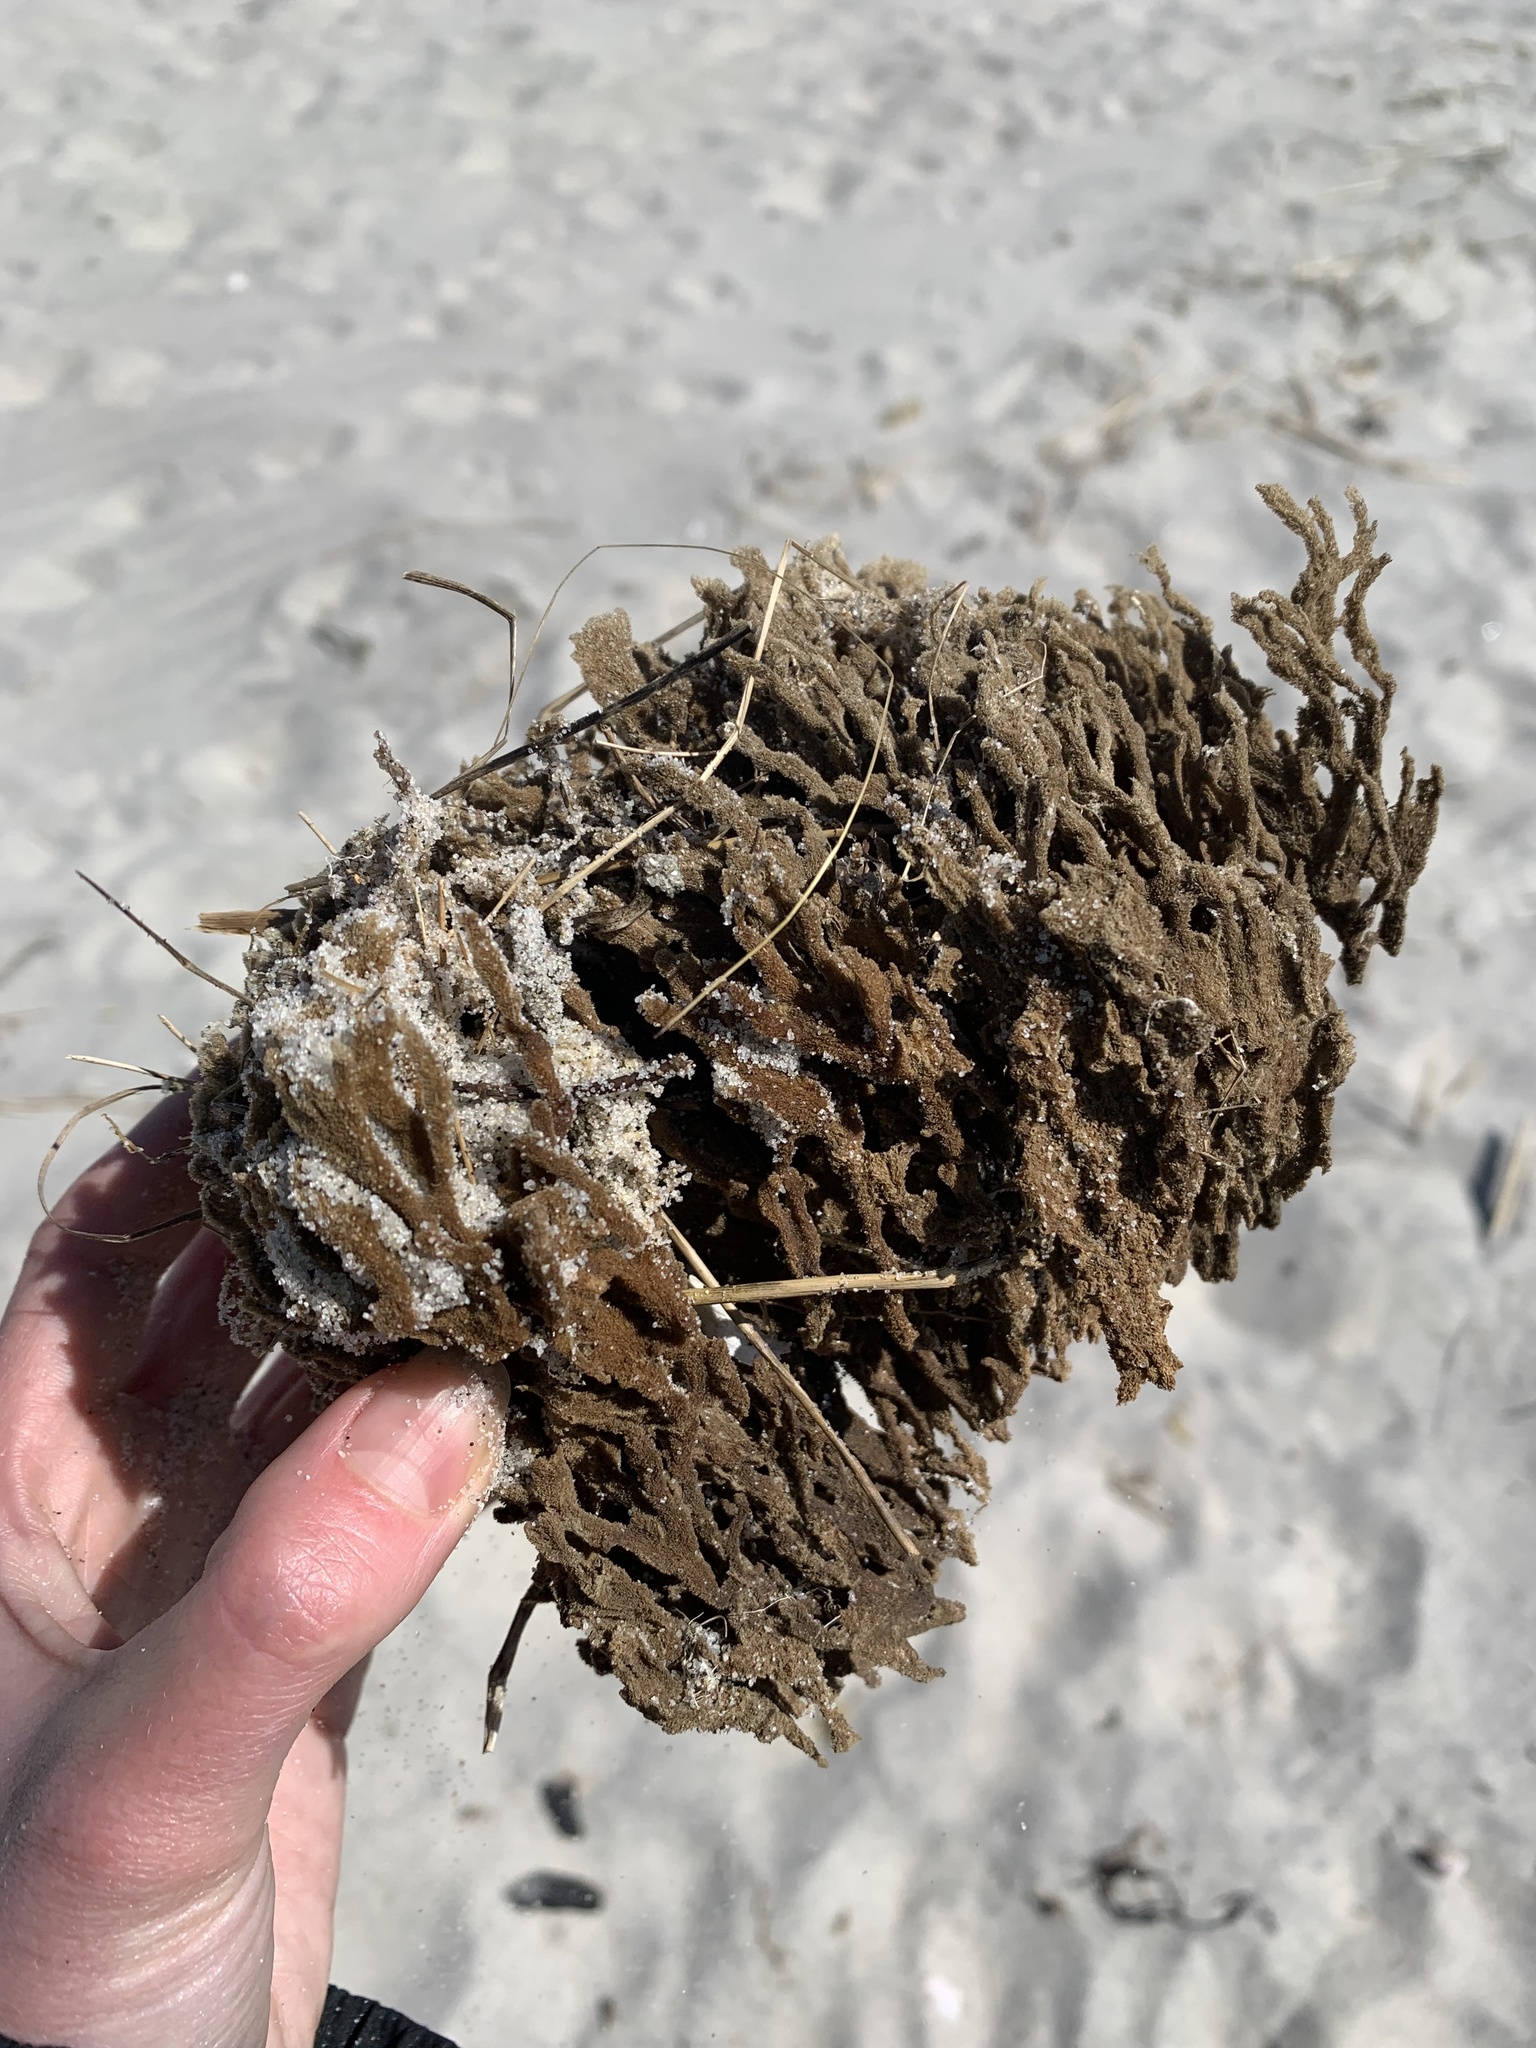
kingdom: Animalia
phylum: Porifera
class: Demospongiae
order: Poecilosclerida
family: Microcionidae
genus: Clathria
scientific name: Clathria prolifera
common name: Red beard sponge
